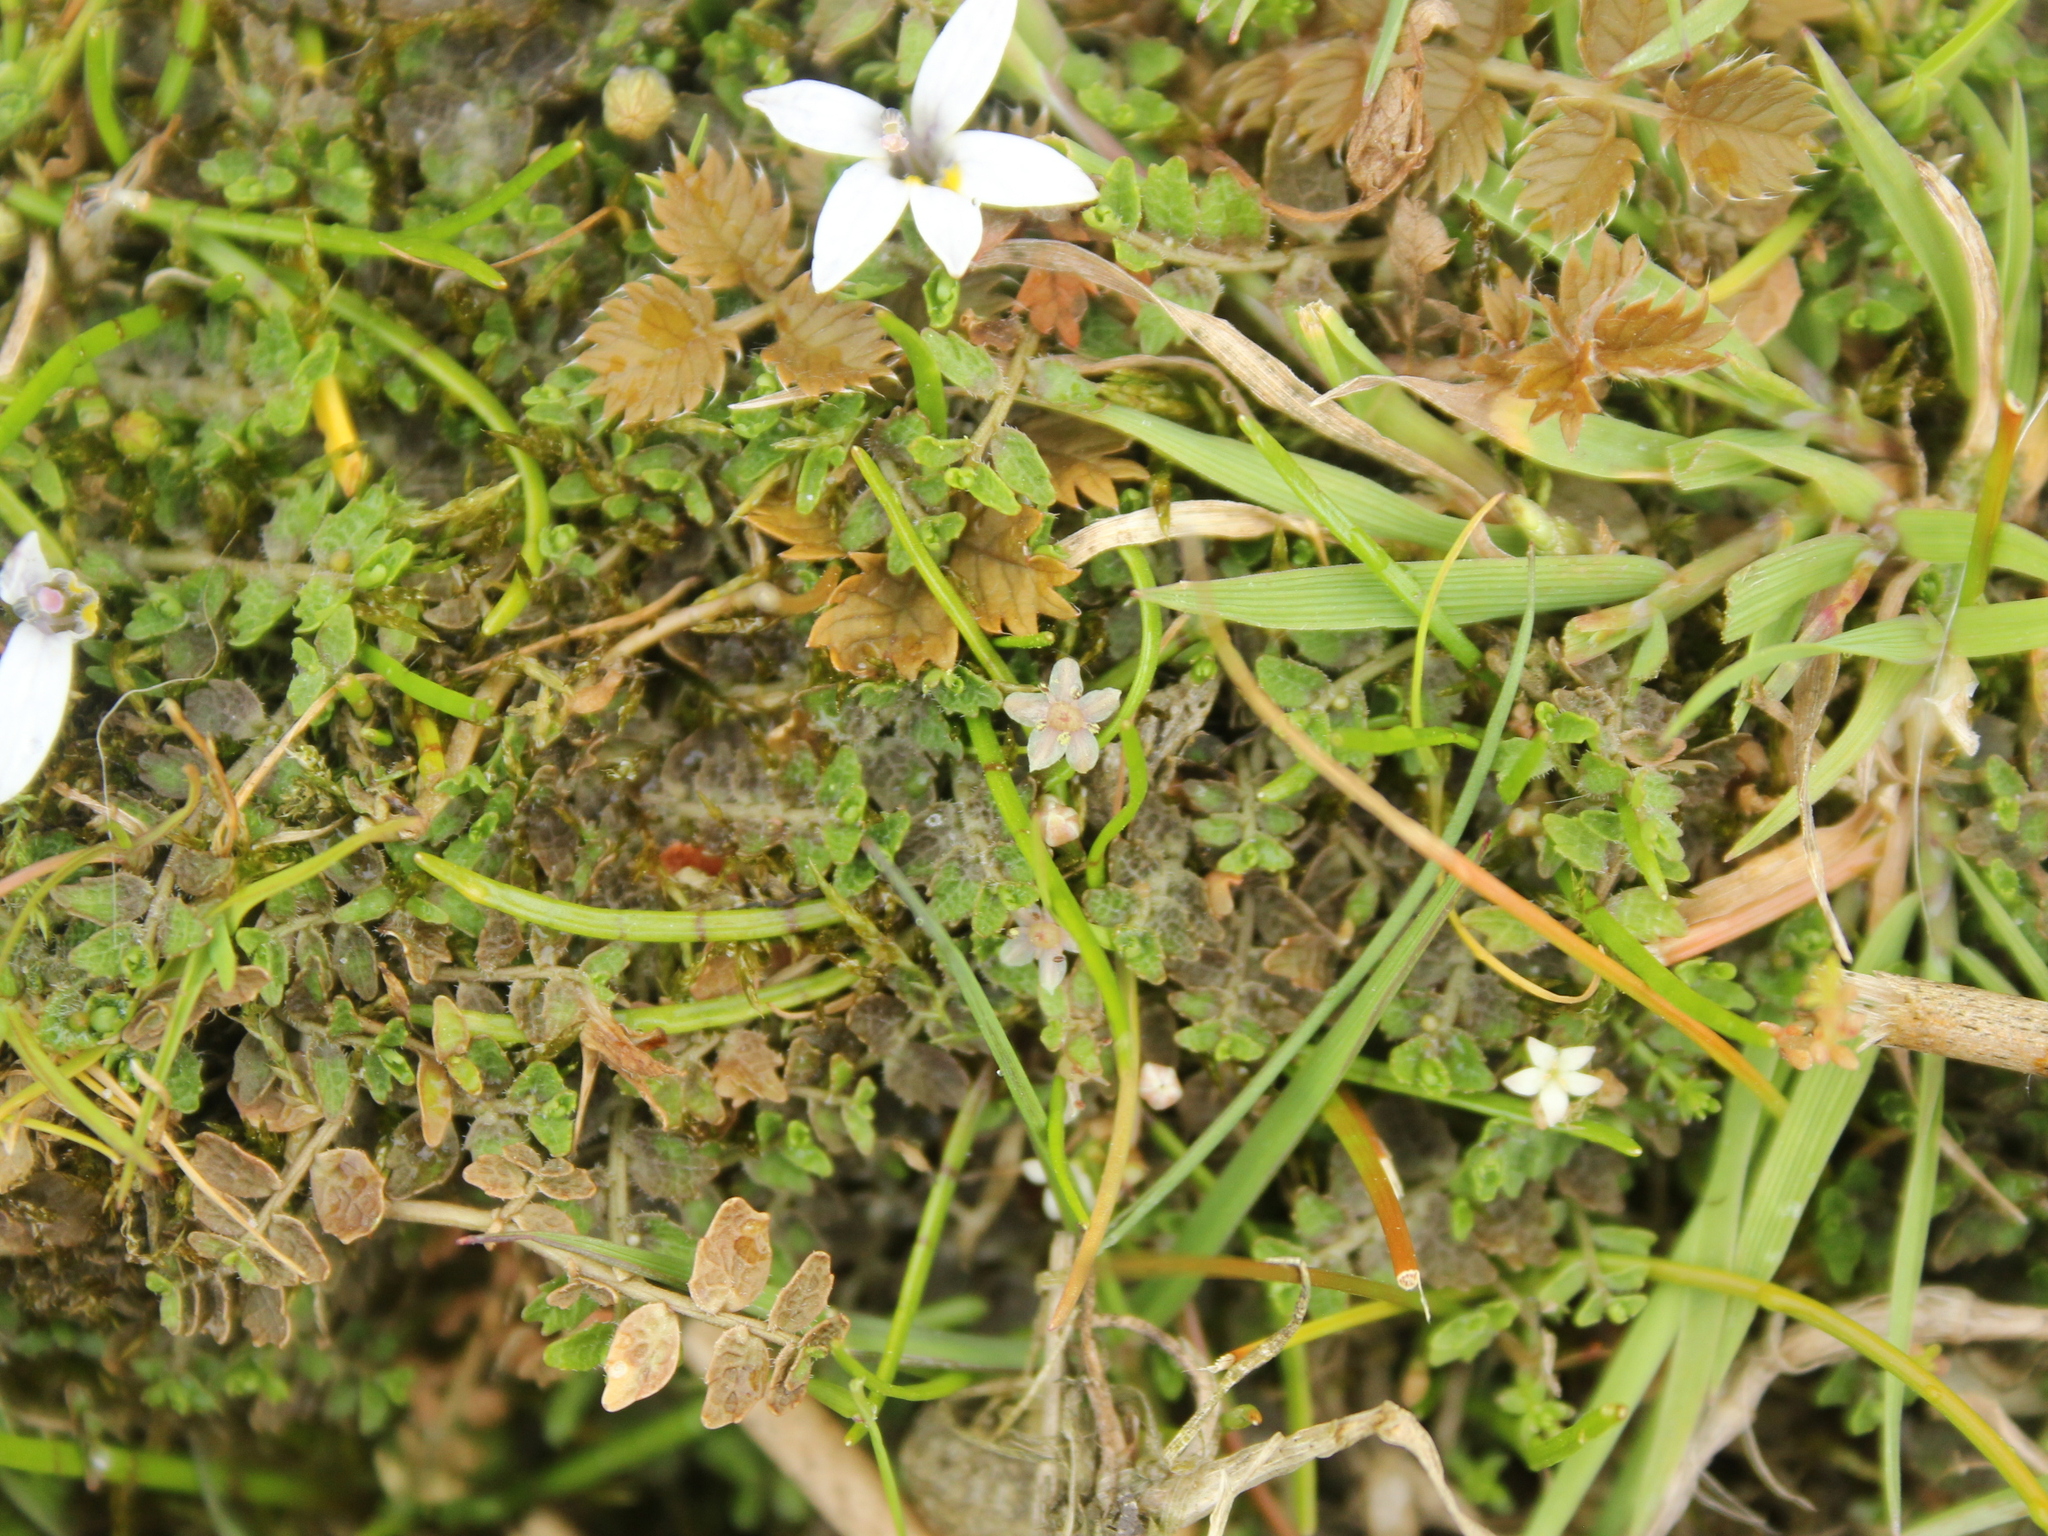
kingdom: Plantae
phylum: Tracheophyta
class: Magnoliopsida
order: Apiales
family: Apiaceae
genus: Lilaeopsis
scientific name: Lilaeopsis novae-zelandiae
